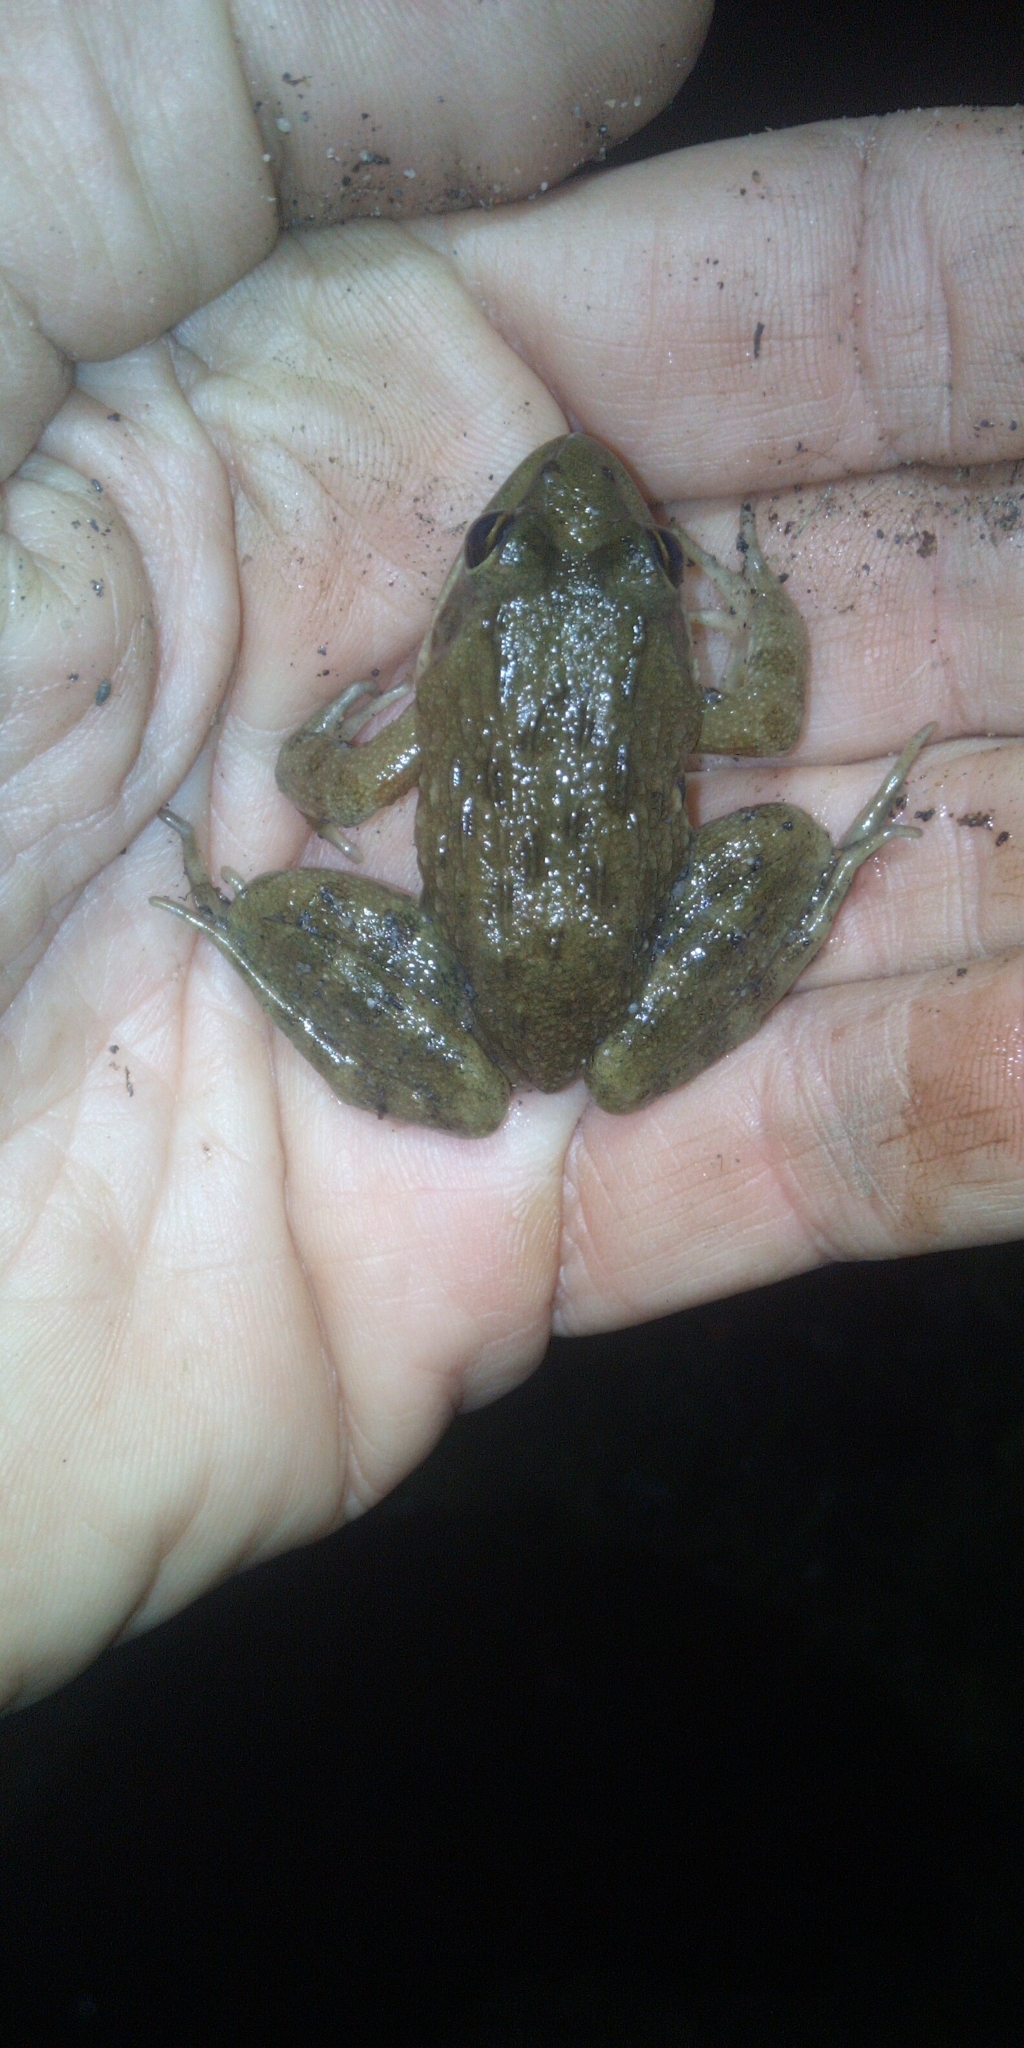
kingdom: Animalia
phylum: Chordata
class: Amphibia
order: Anura
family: Pyxicephalidae
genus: Amietia
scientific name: Amietia fuscigula
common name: Cape rana
